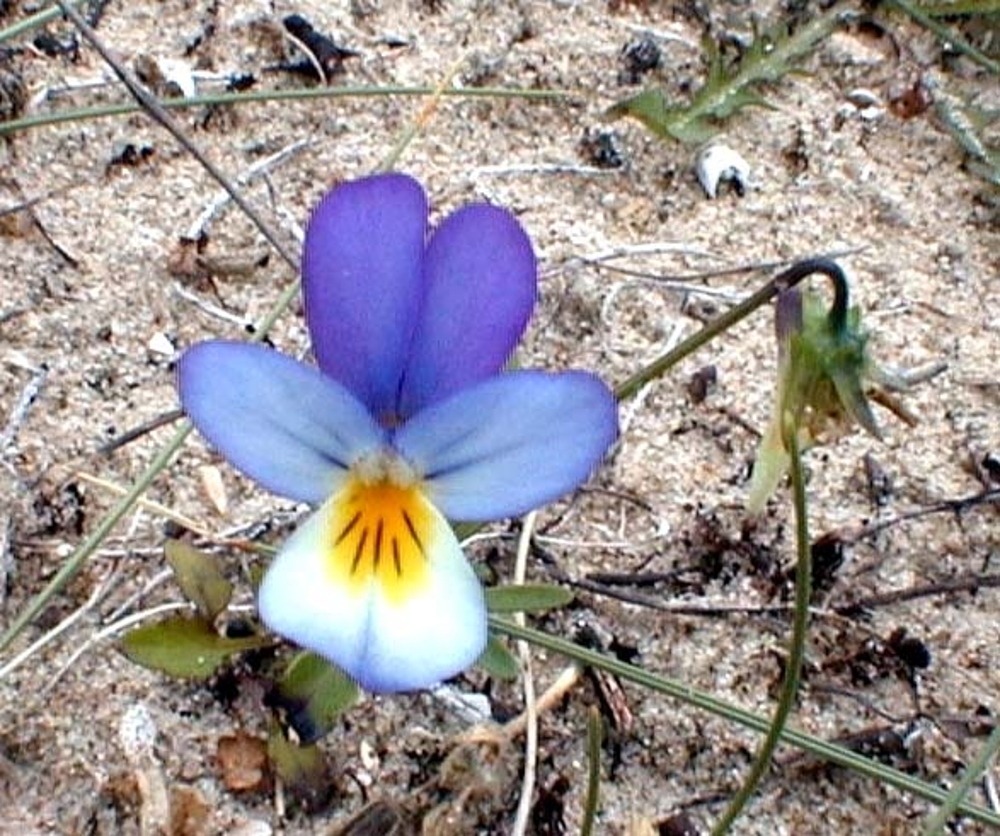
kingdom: Plantae
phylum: Tracheophyta
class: Magnoliopsida
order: Malpighiales
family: Violaceae
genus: Viola
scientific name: Viola tricolor
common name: Pansy
